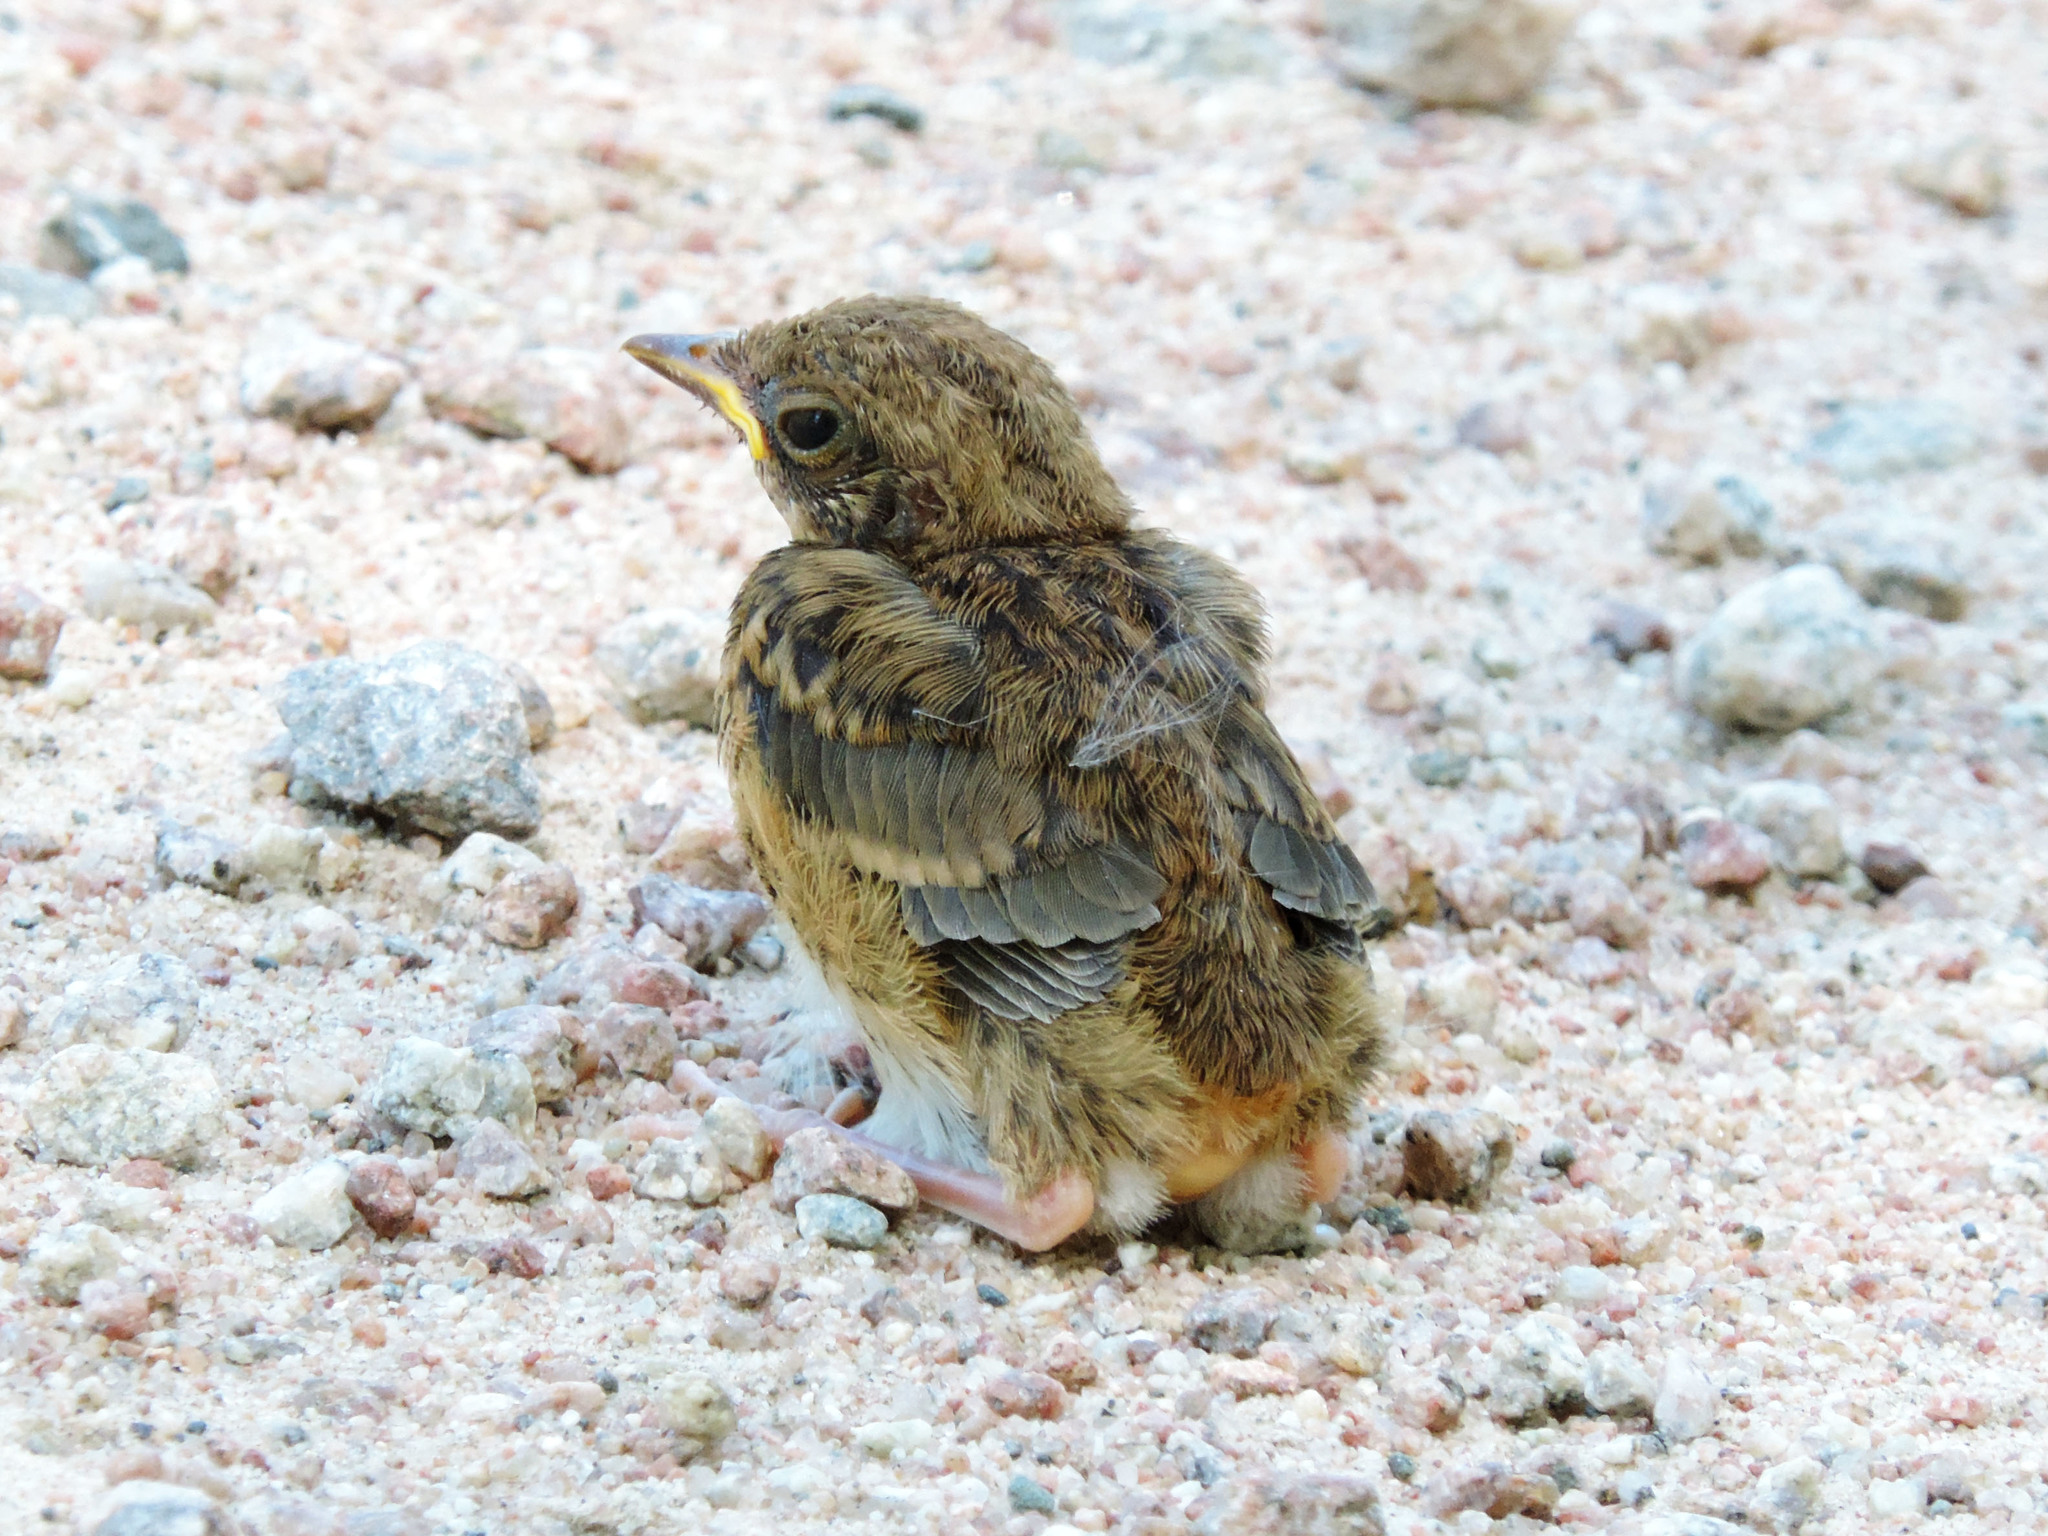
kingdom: Animalia
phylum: Chordata
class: Aves
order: Passeriformes
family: Turdidae
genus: Turdus
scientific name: Turdus migratorius
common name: American robin
